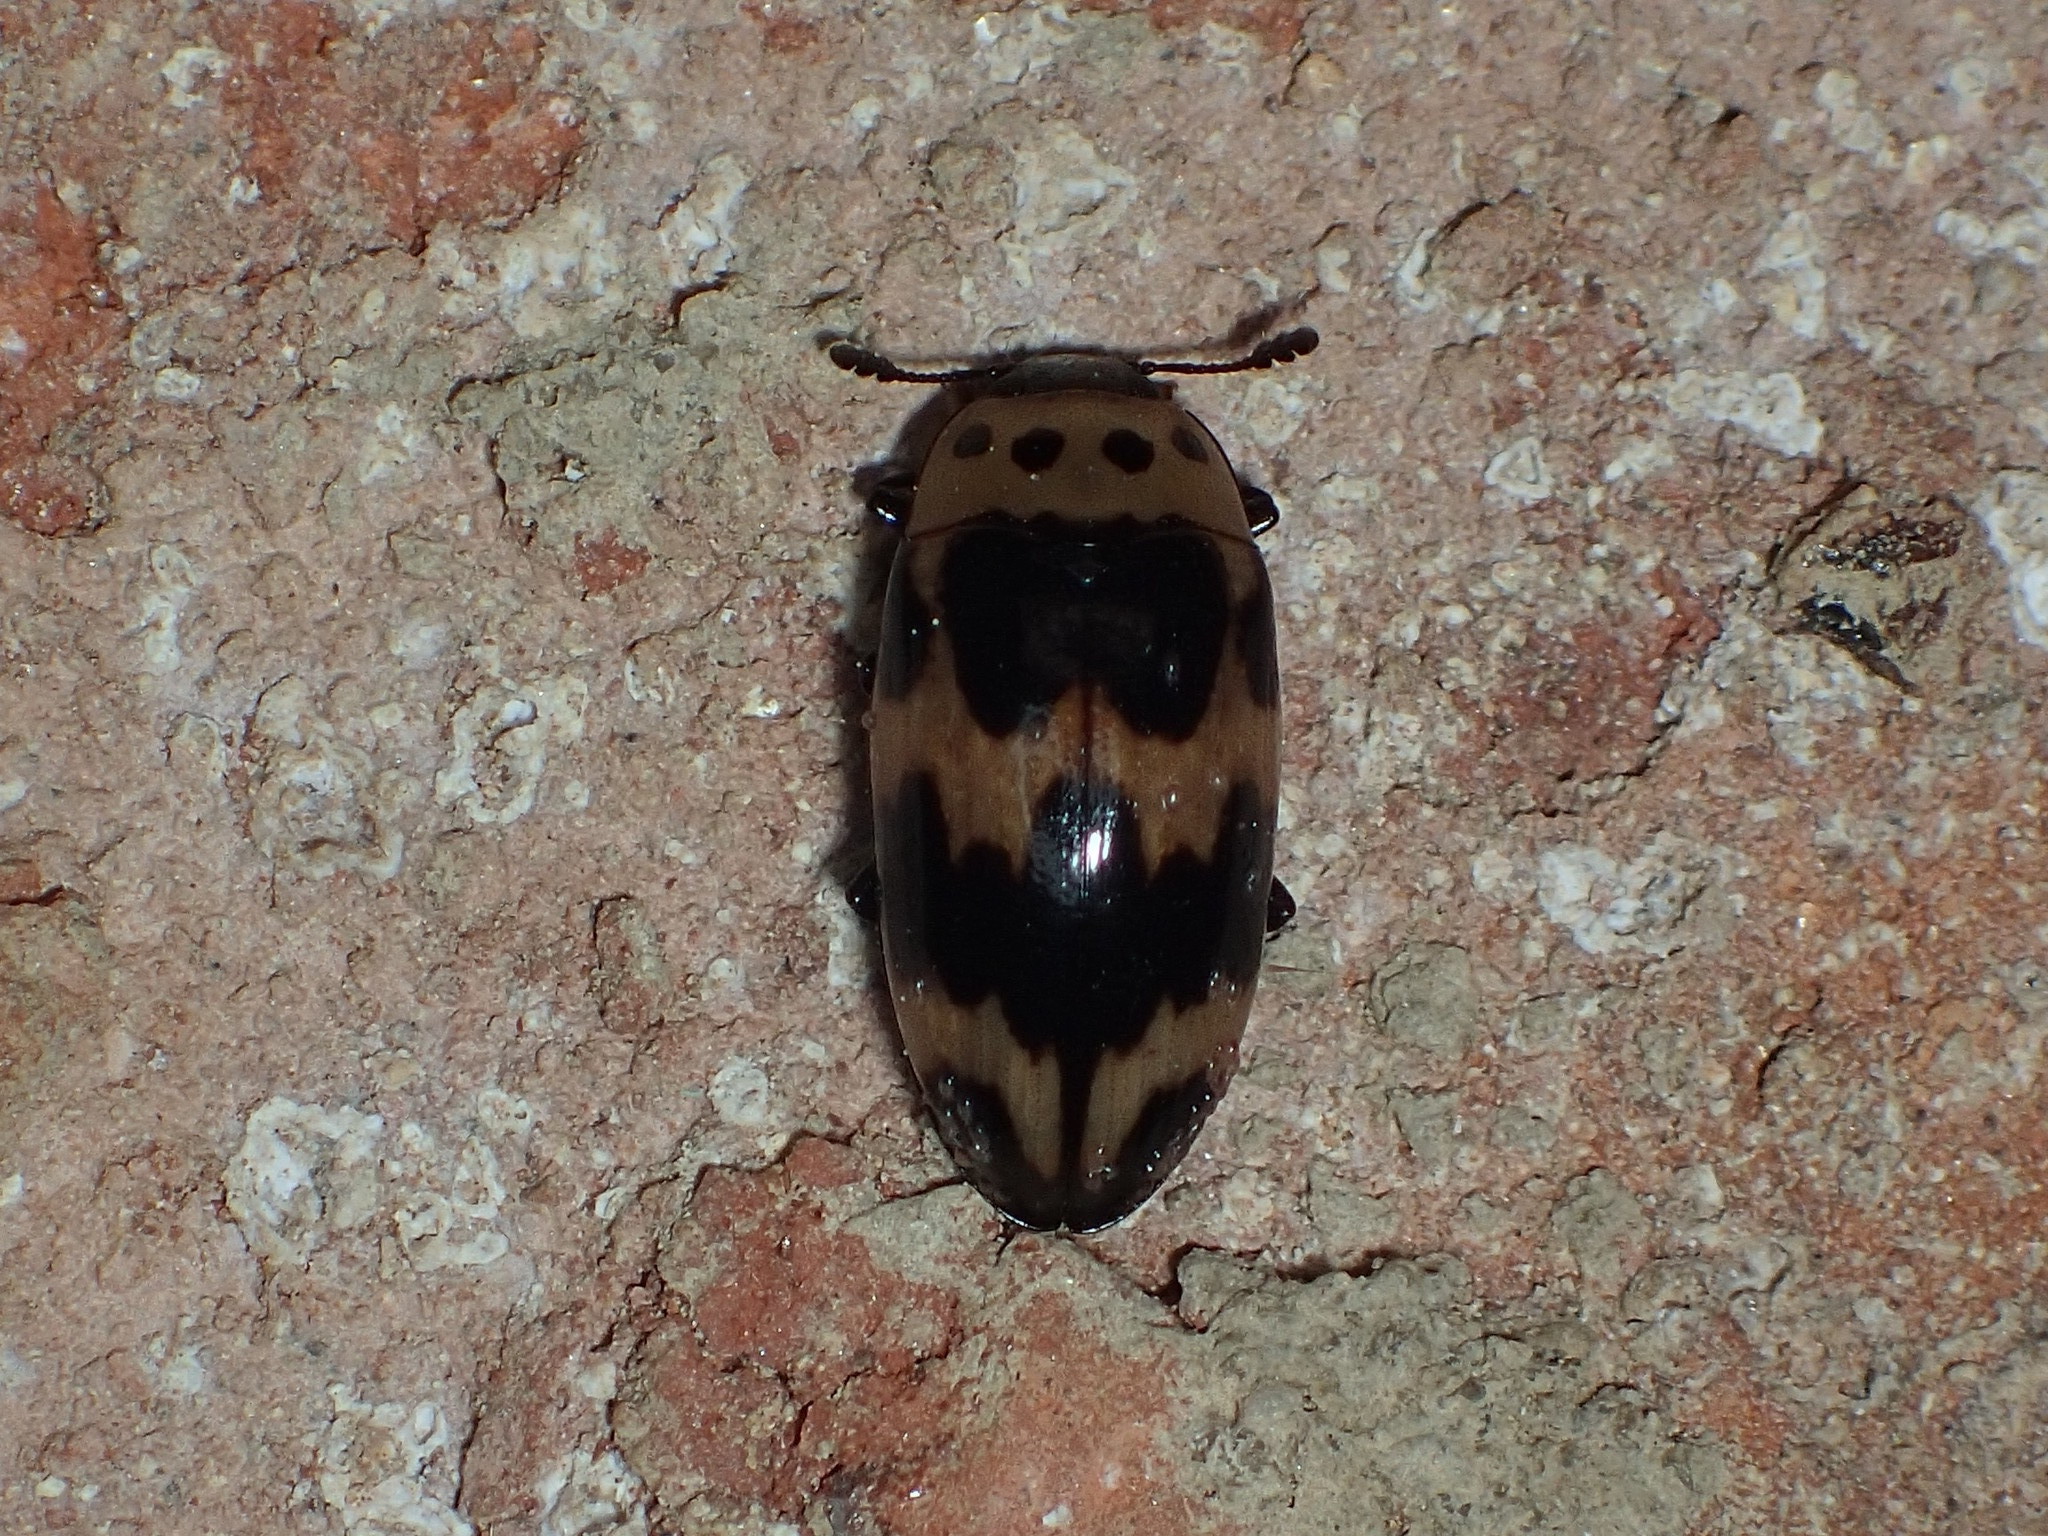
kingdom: Animalia
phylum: Arthropoda
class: Insecta
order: Coleoptera
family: Erotylidae
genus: Ischyrus
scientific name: Ischyrus quadripunctatus
